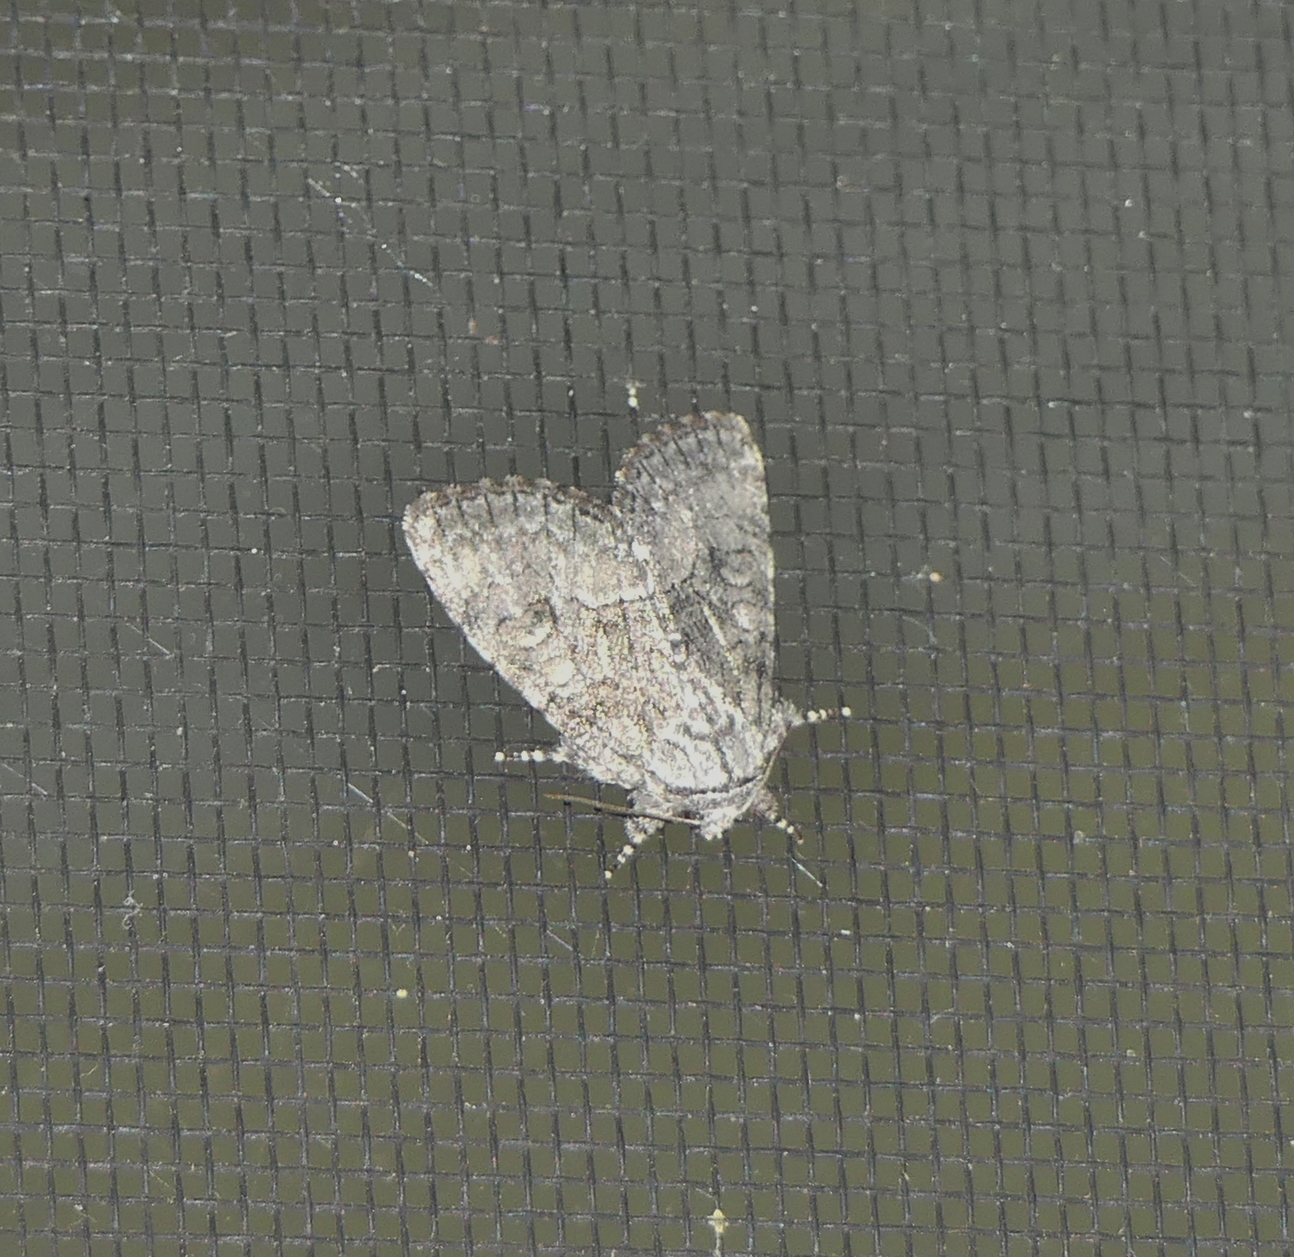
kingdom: Animalia
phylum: Arthropoda
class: Insecta
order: Lepidoptera
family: Noctuidae
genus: Raphia
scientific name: Raphia frater
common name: Brother
